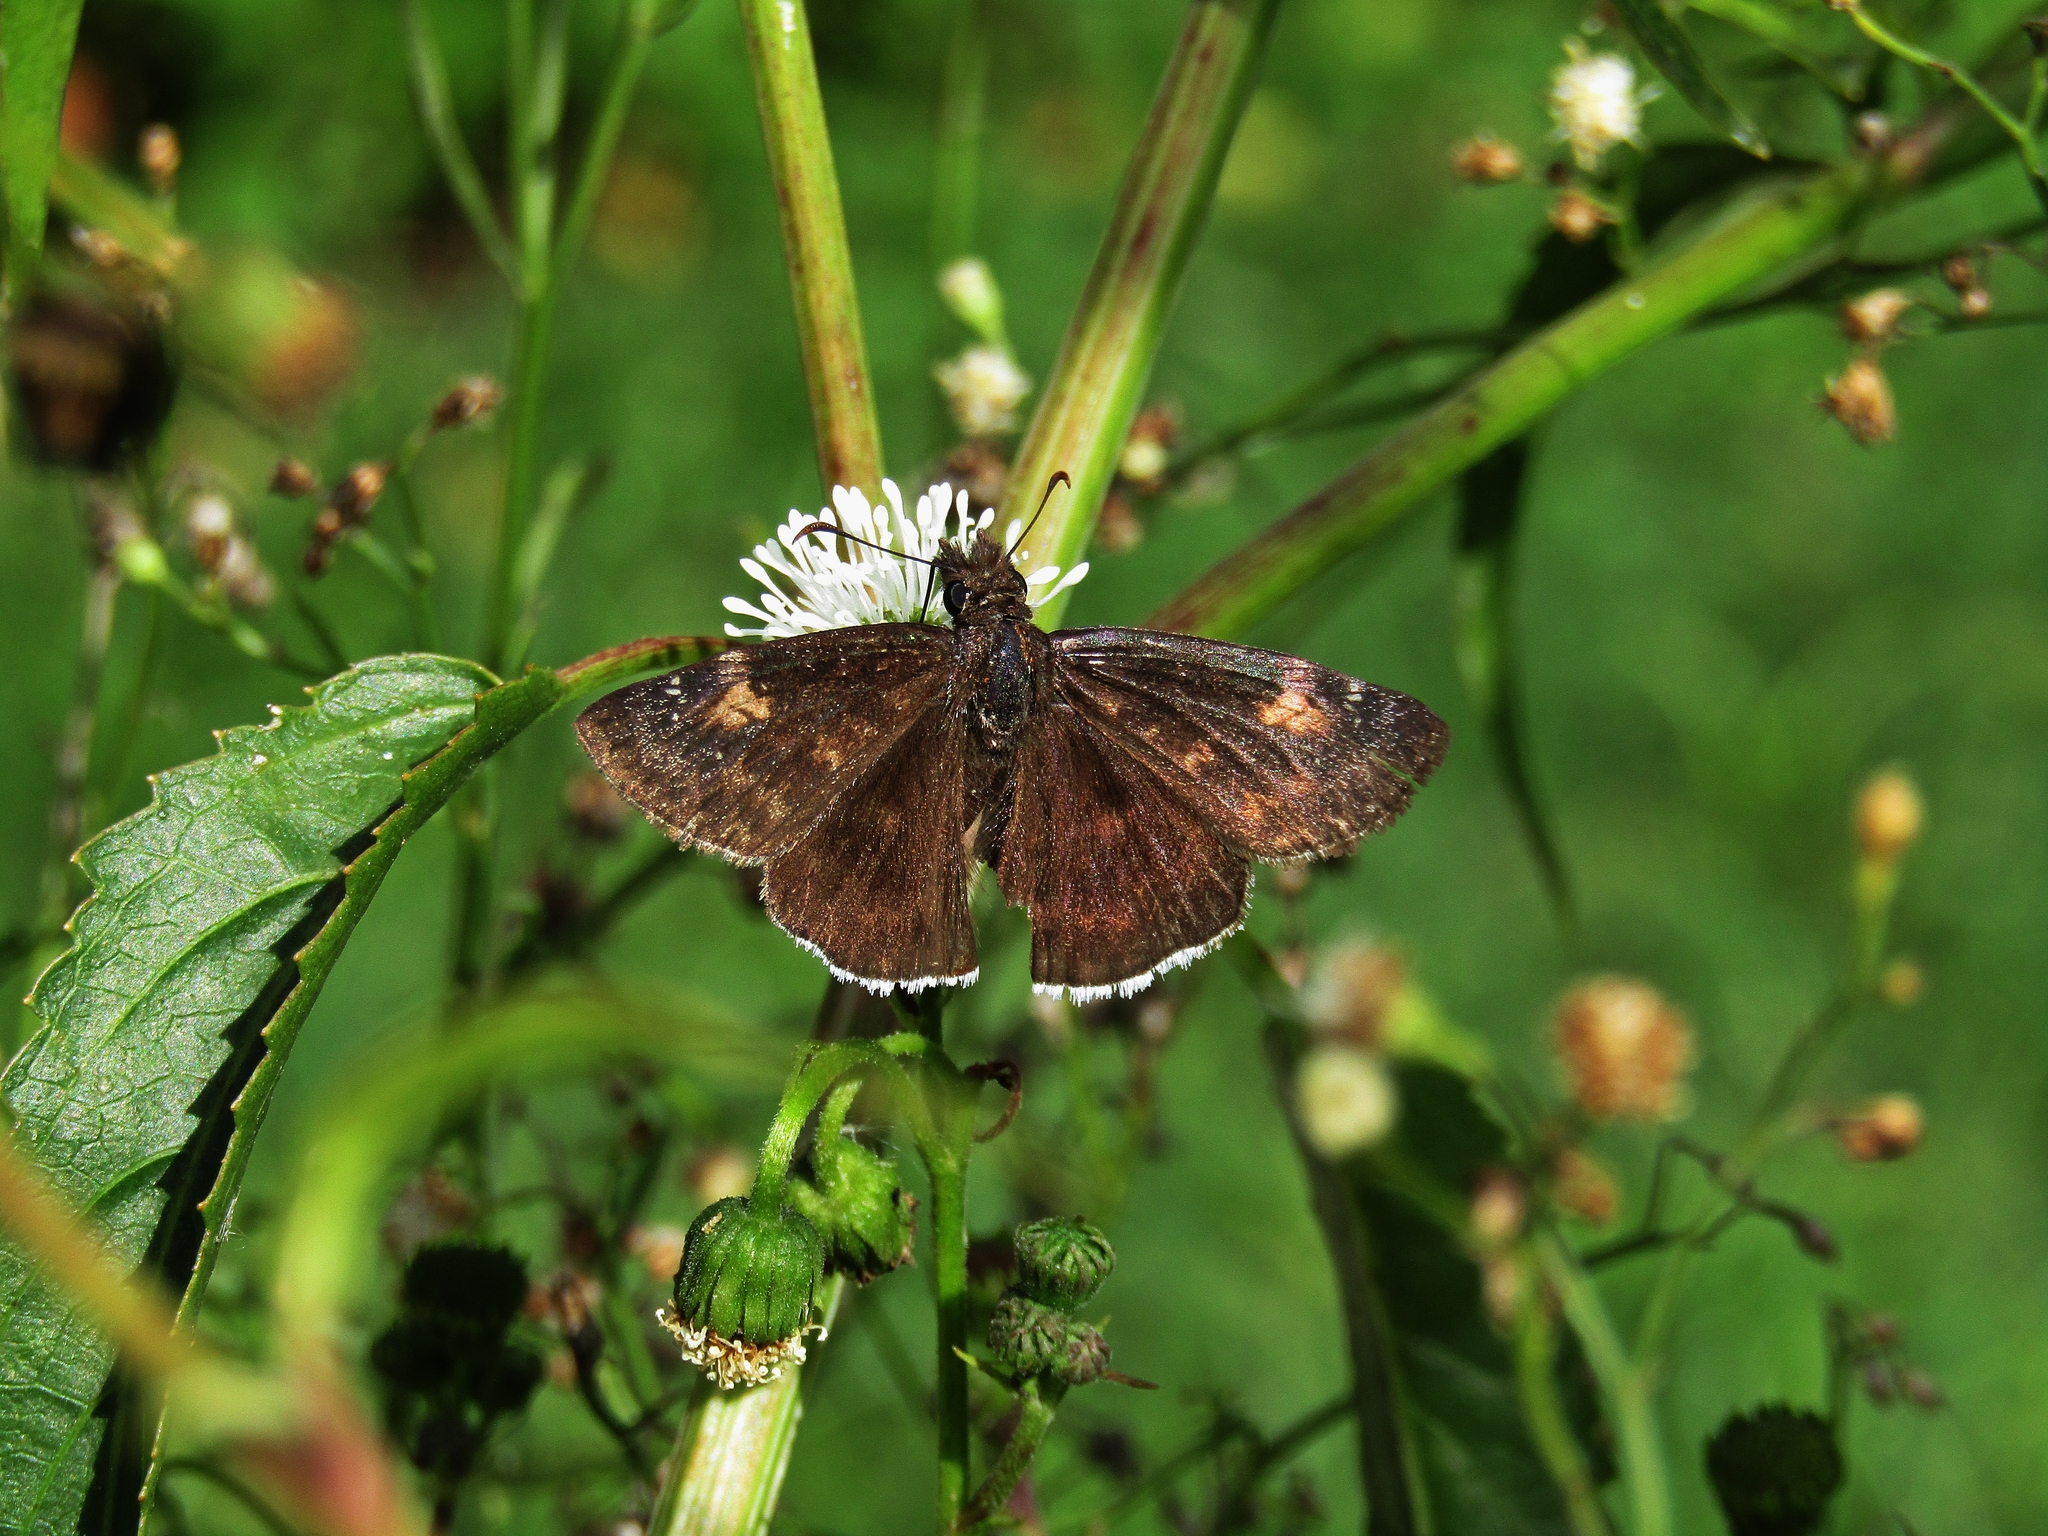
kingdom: Animalia
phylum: Arthropoda
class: Insecta
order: Lepidoptera
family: Hesperiidae
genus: Erynnis
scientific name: Erynnis funeralis
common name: Funereal duskywing
